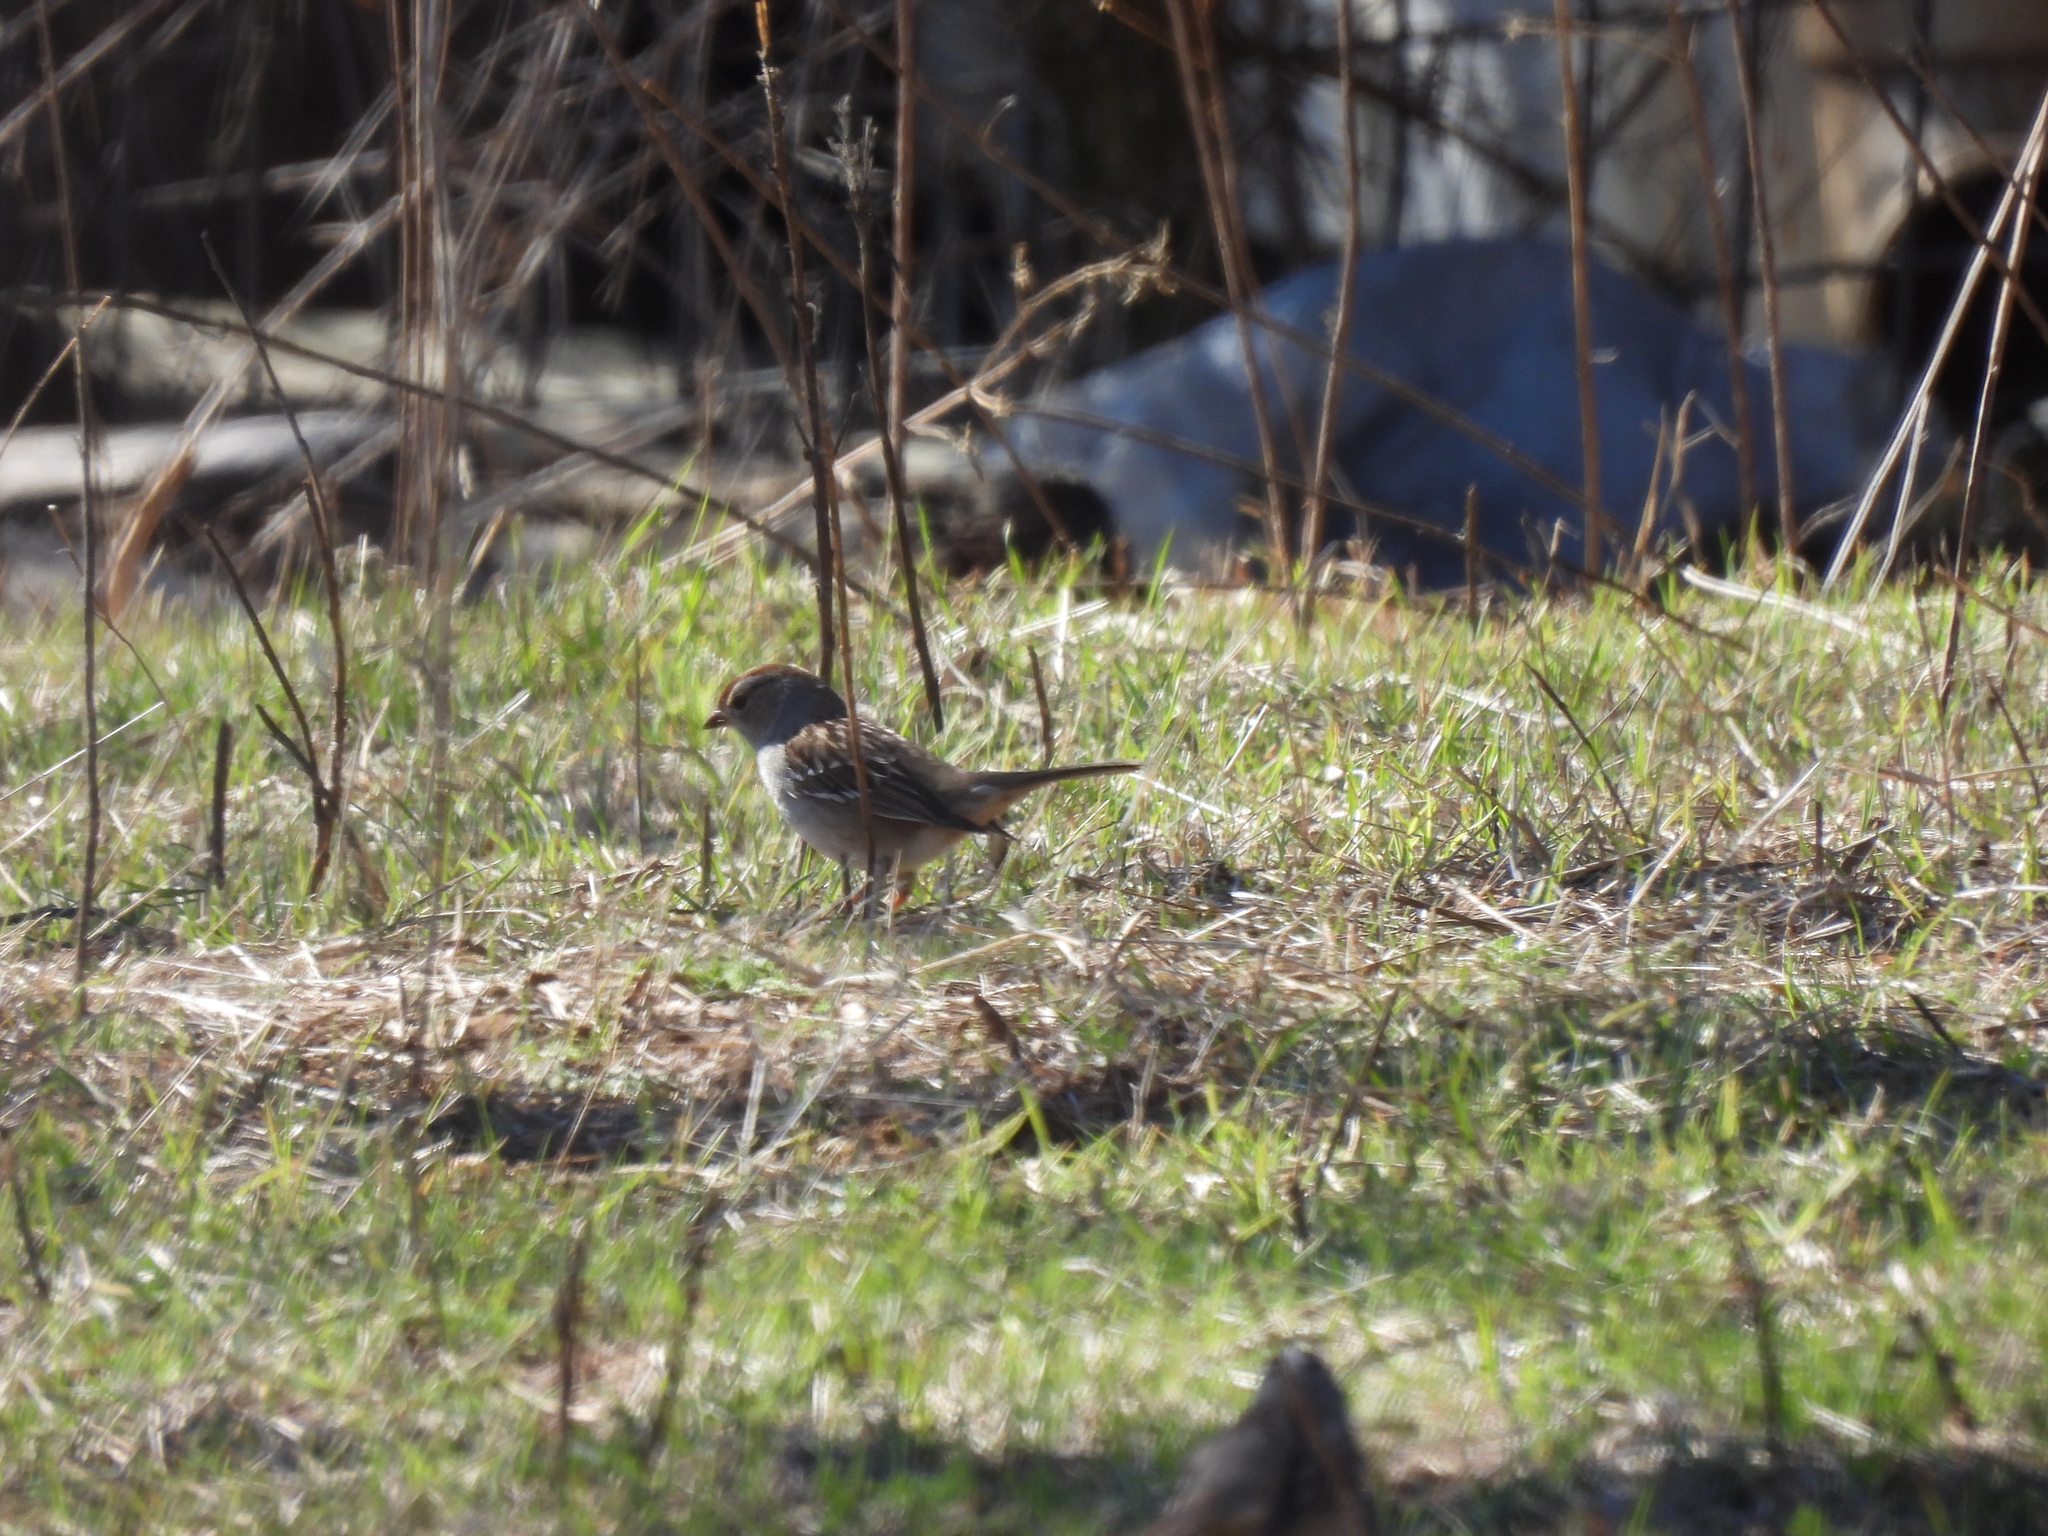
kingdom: Animalia
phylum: Chordata
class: Aves
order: Passeriformes
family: Passerellidae
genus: Zonotrichia
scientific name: Zonotrichia leucophrys
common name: White-crowned sparrow
